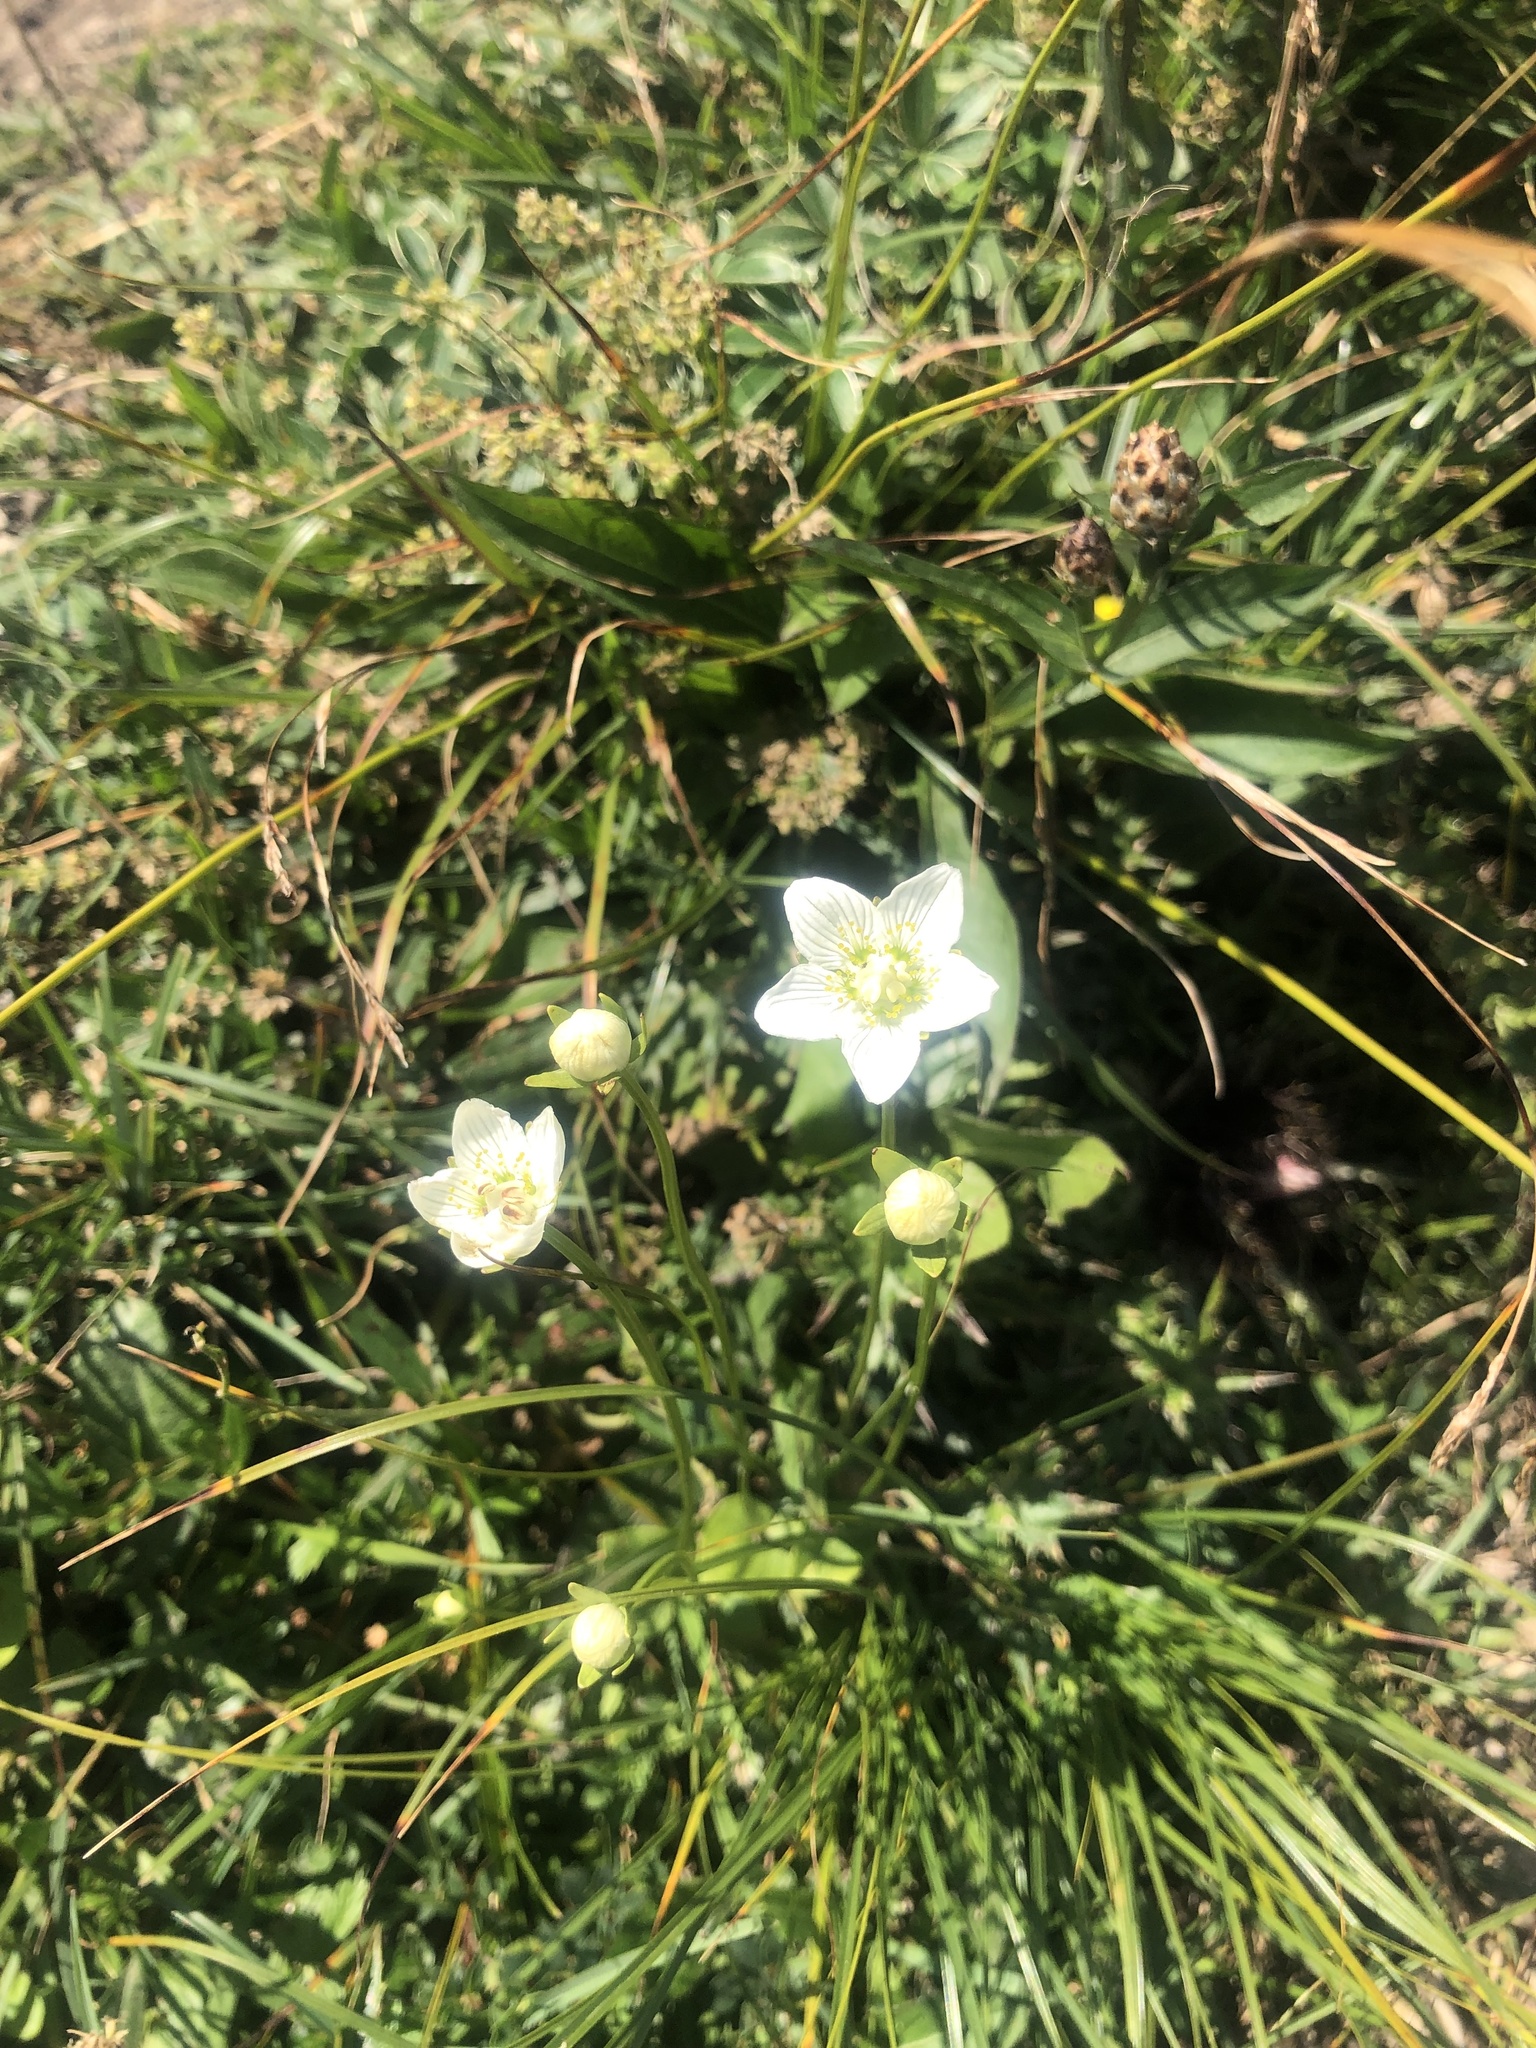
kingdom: Plantae
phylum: Tracheophyta
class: Magnoliopsida
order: Celastrales
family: Parnassiaceae
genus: Parnassia
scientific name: Parnassia palustris
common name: Grass-of-parnassus
